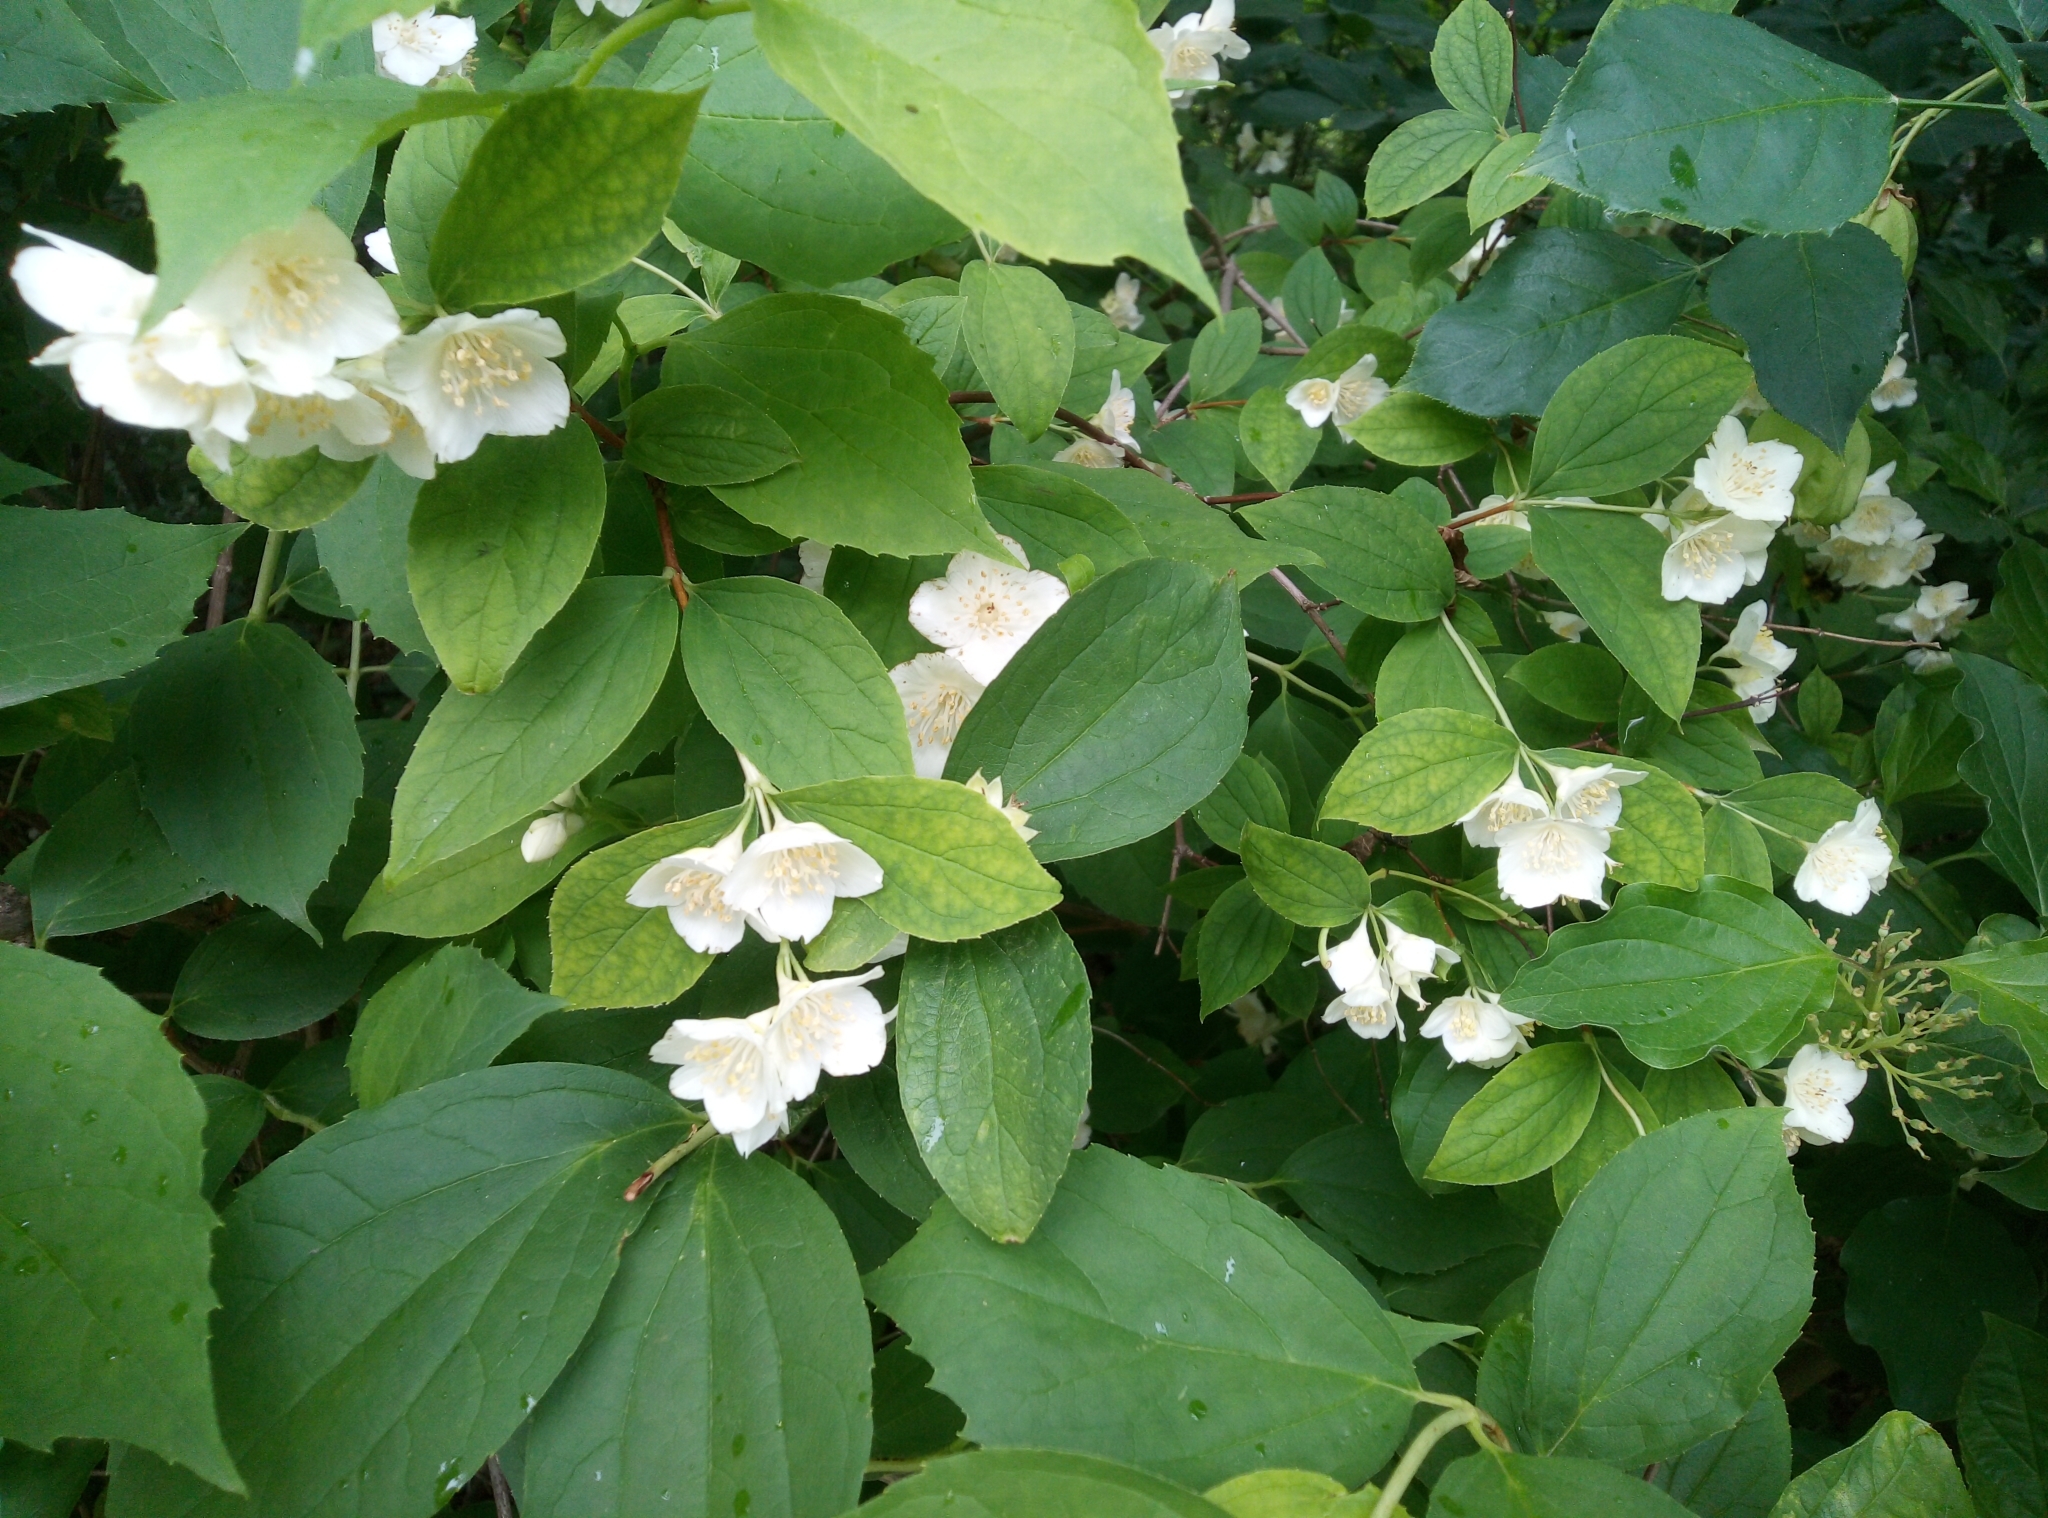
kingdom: Plantae
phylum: Tracheophyta
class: Magnoliopsida
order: Cornales
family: Hydrangeaceae
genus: Philadelphus
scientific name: Philadelphus coronarius
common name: Mock orange
